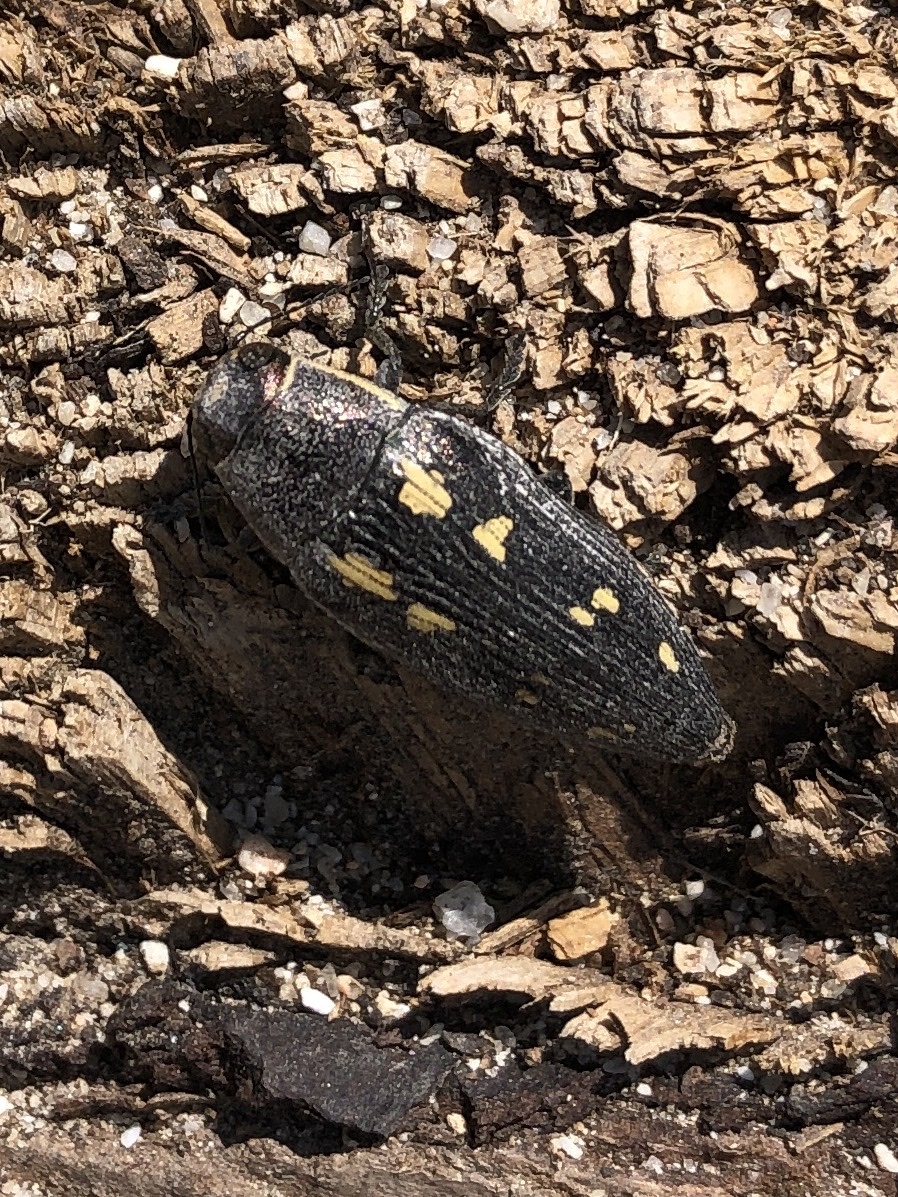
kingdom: Animalia
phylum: Arthropoda
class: Insecta
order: Coleoptera
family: Buprestidae
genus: Buprestis
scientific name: Buprestis novemmaculata
